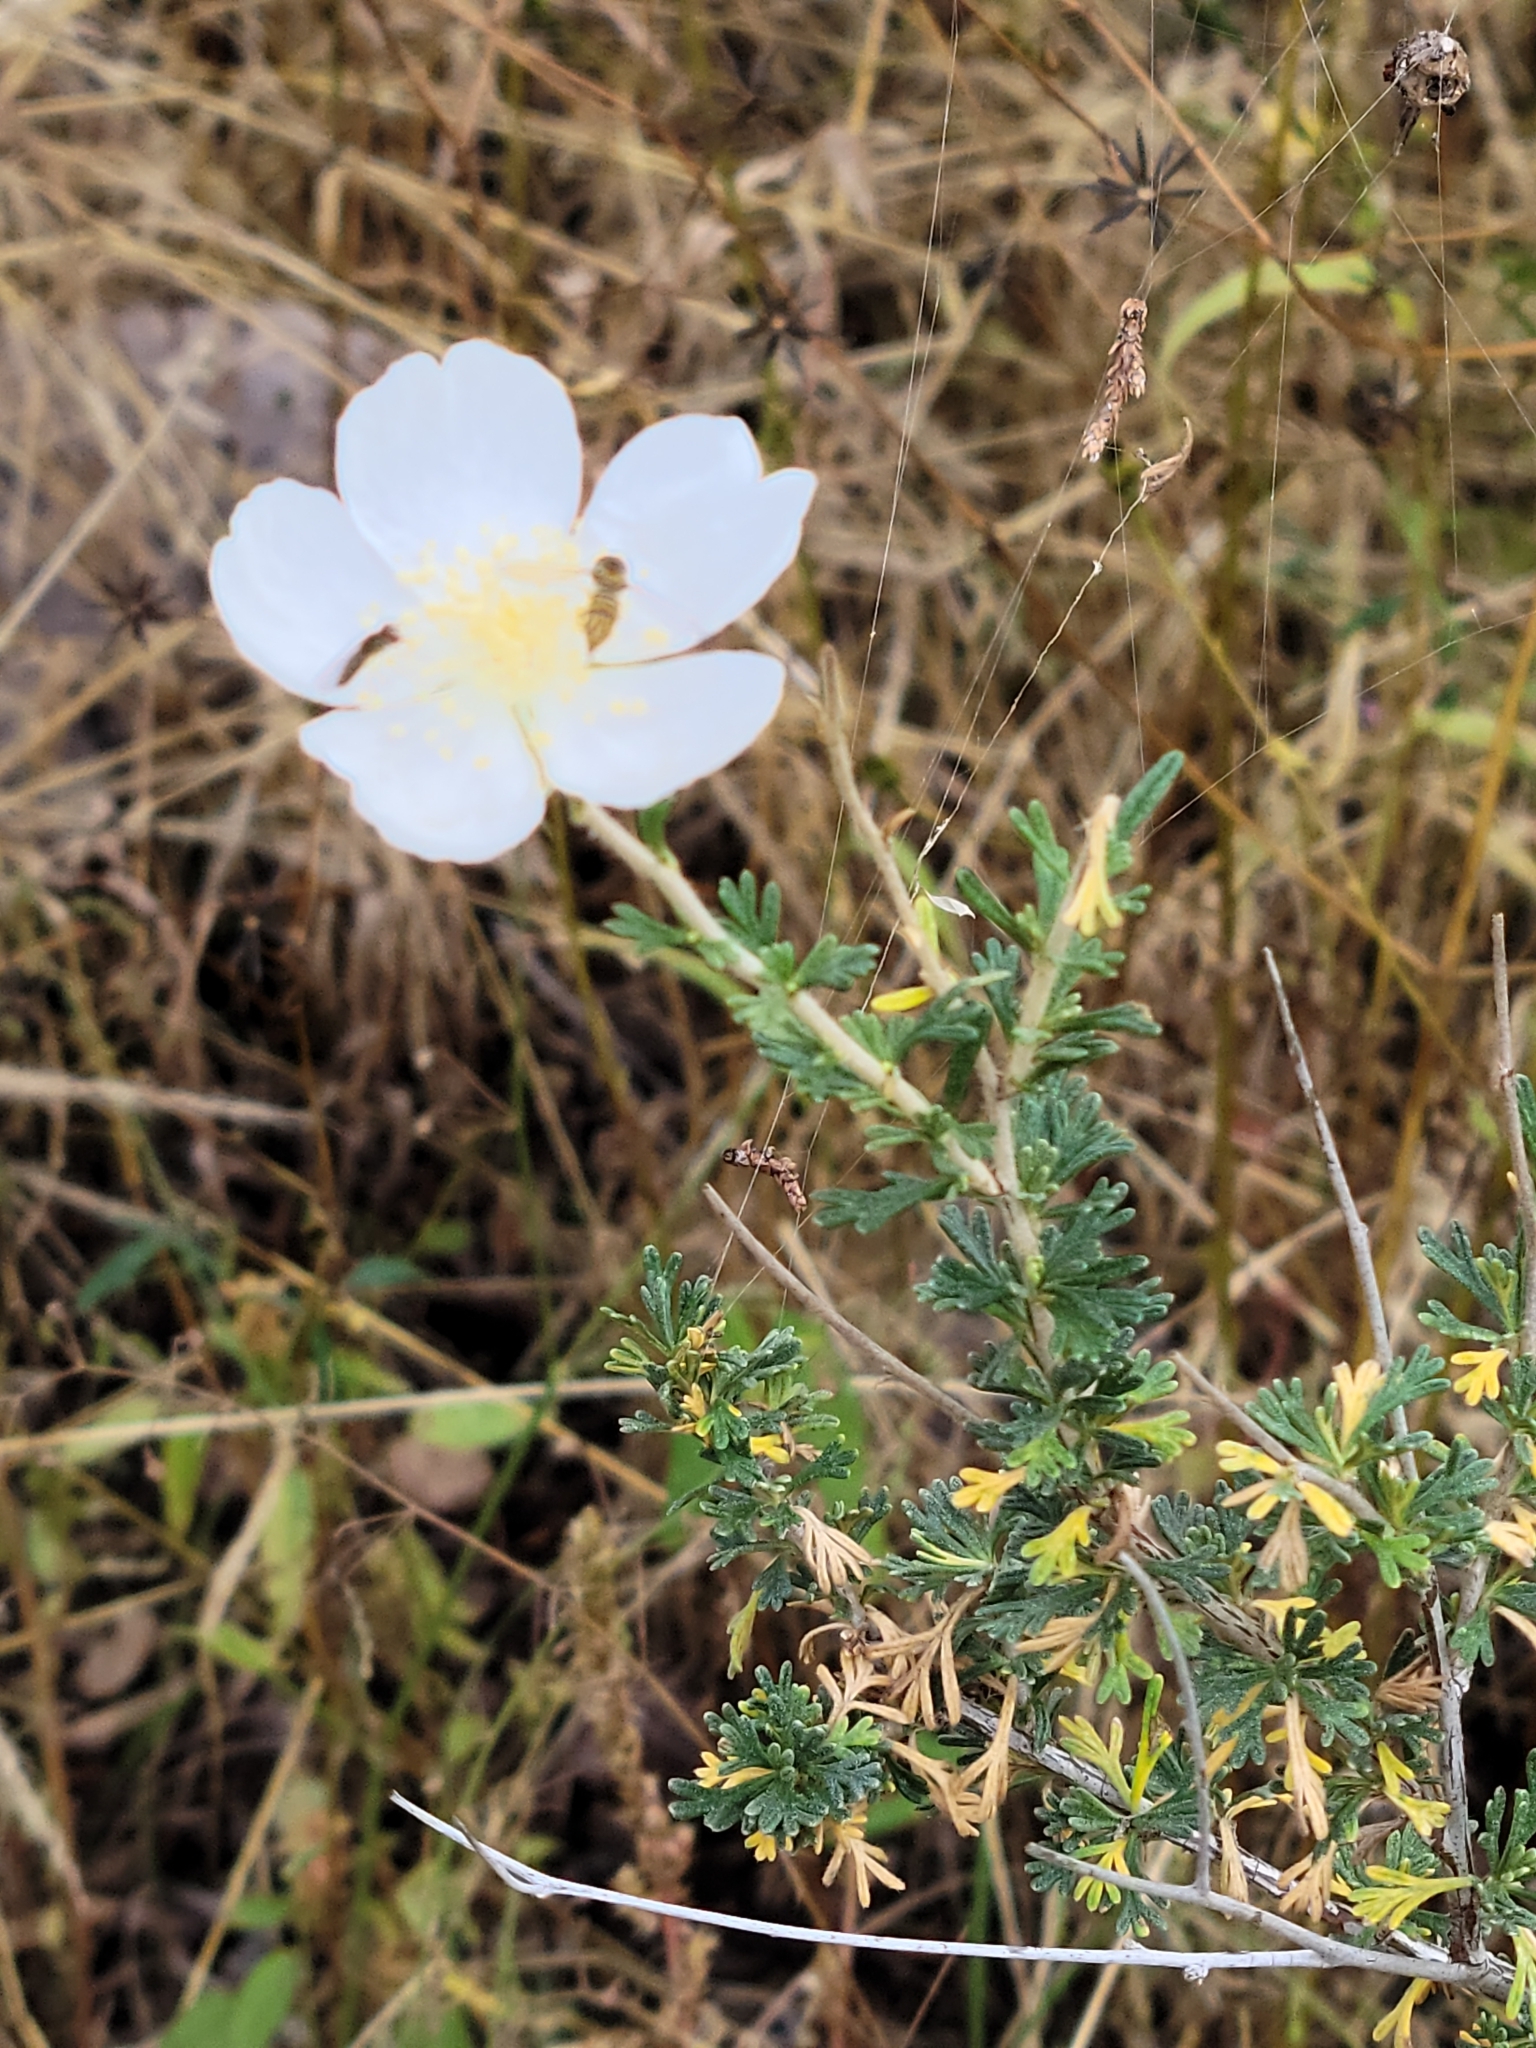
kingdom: Plantae
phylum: Tracheophyta
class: Magnoliopsida
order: Rosales
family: Rosaceae
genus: Fallugia
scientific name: Fallugia paradoxa
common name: Apache-plume
